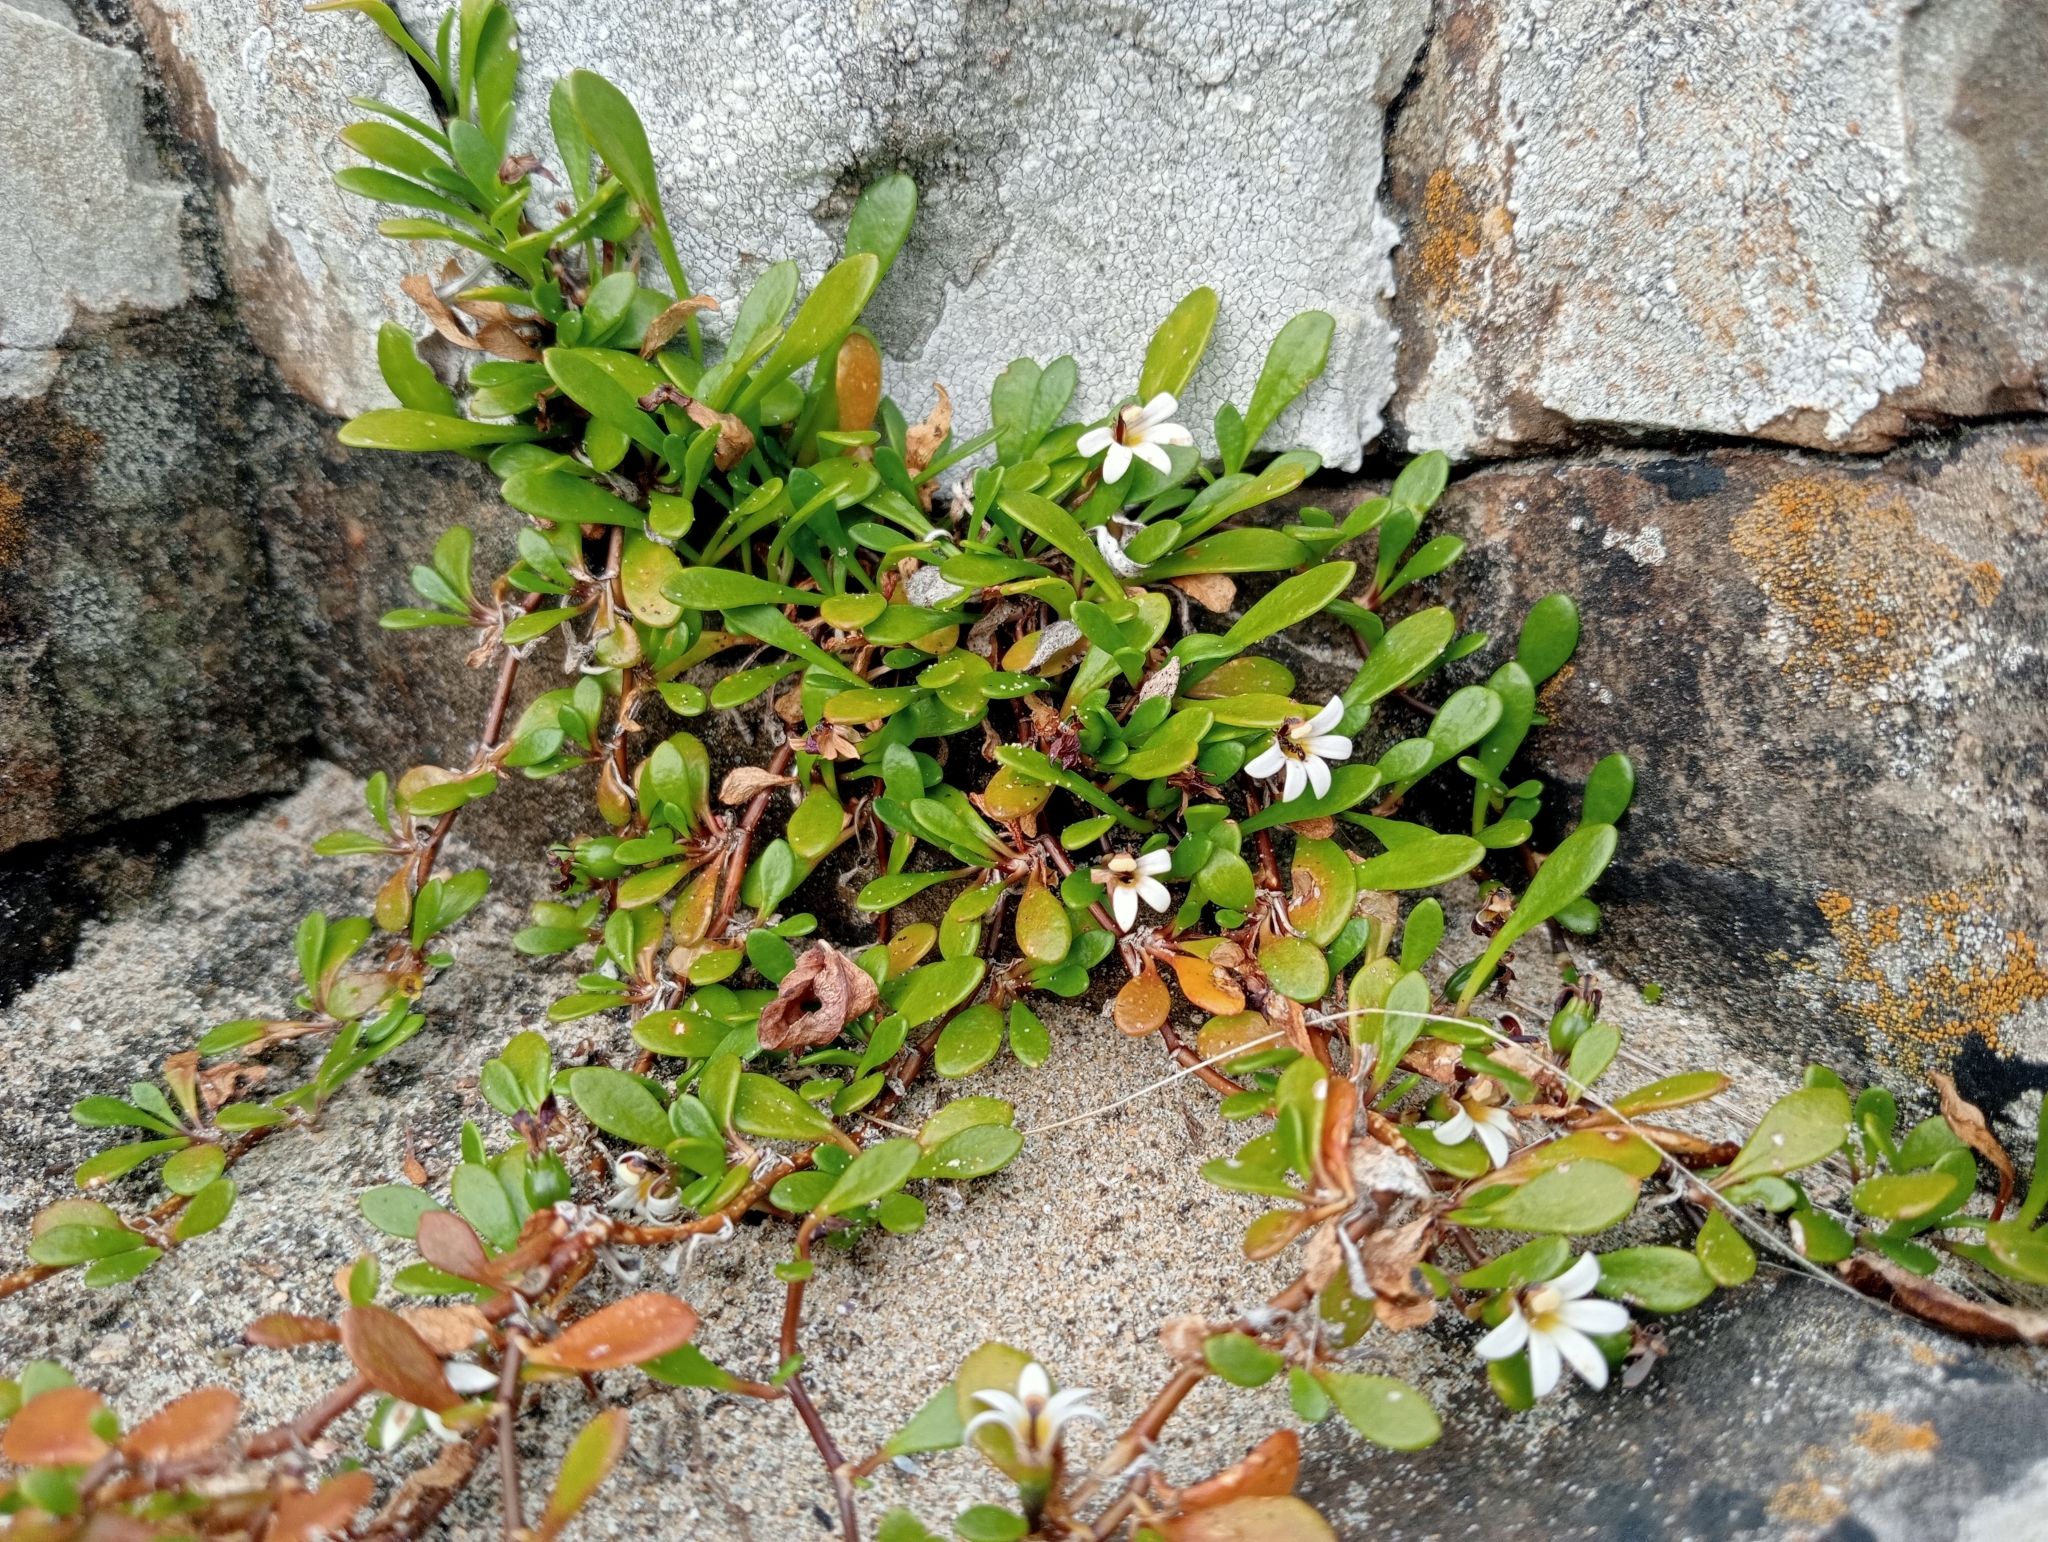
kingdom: Plantae
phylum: Tracheophyta
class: Magnoliopsida
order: Asterales
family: Goodeniaceae
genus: Goodenia
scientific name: Goodenia radicans
